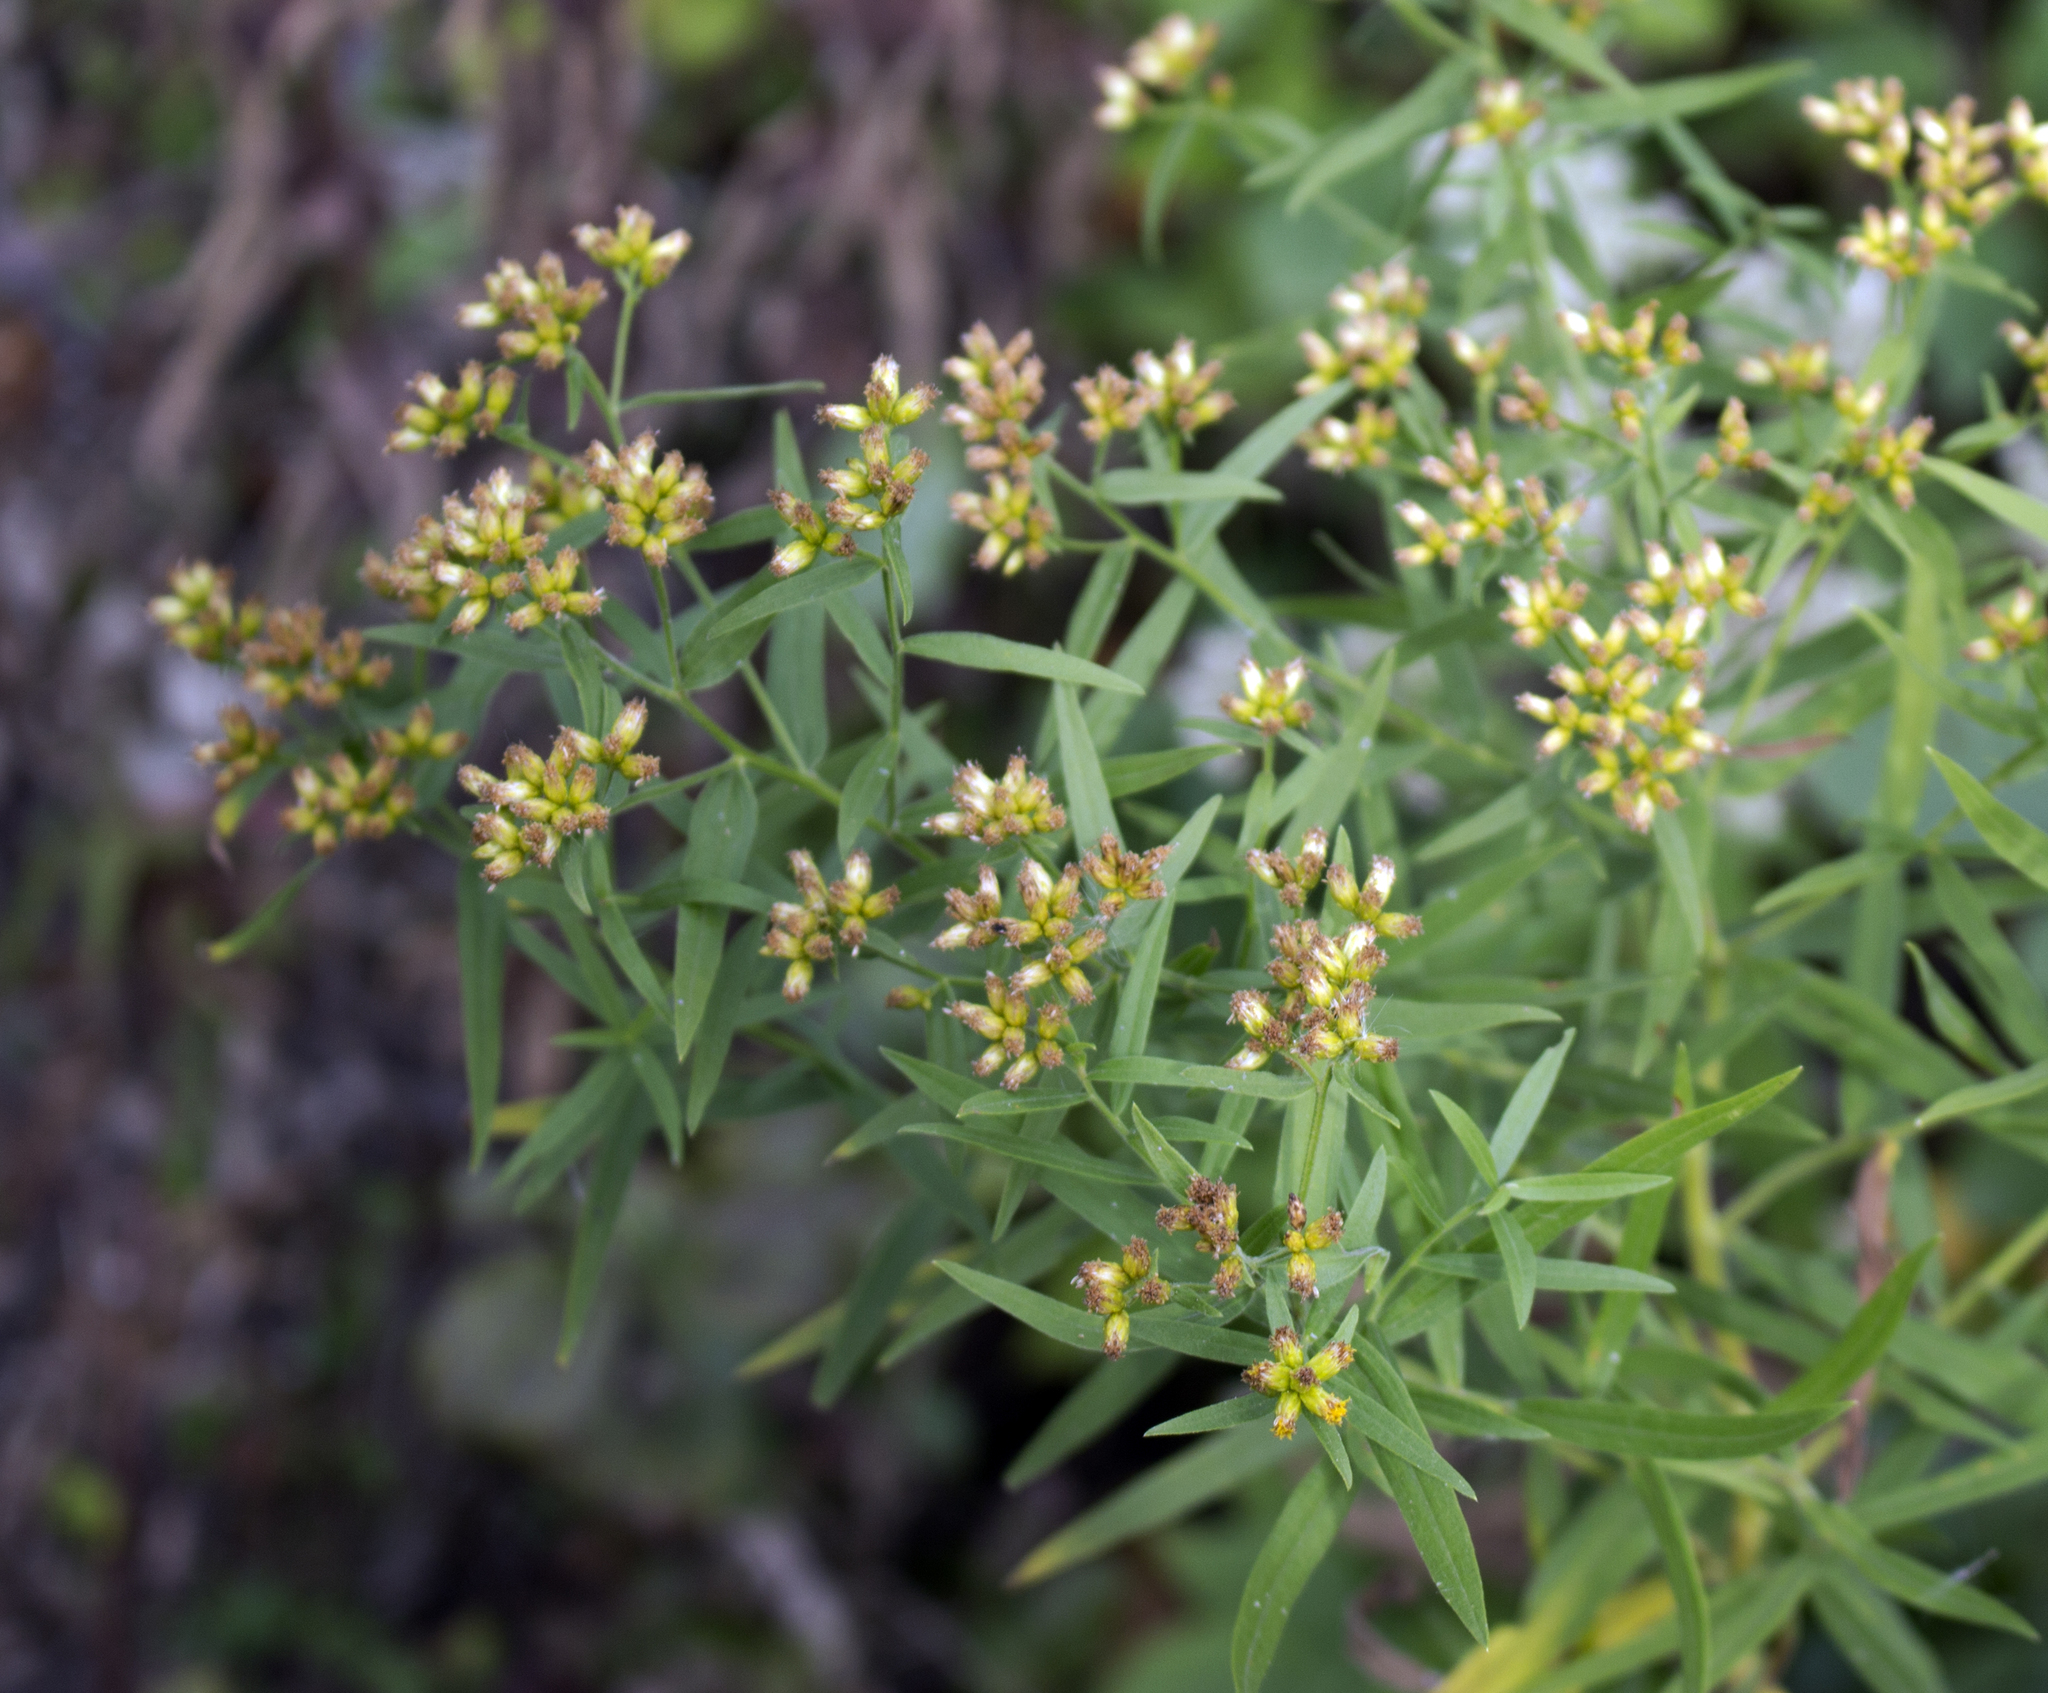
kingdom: Plantae
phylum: Tracheophyta
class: Magnoliopsida
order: Asterales
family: Asteraceae
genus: Euthamia
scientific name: Euthamia graminifolia
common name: Common goldentop
